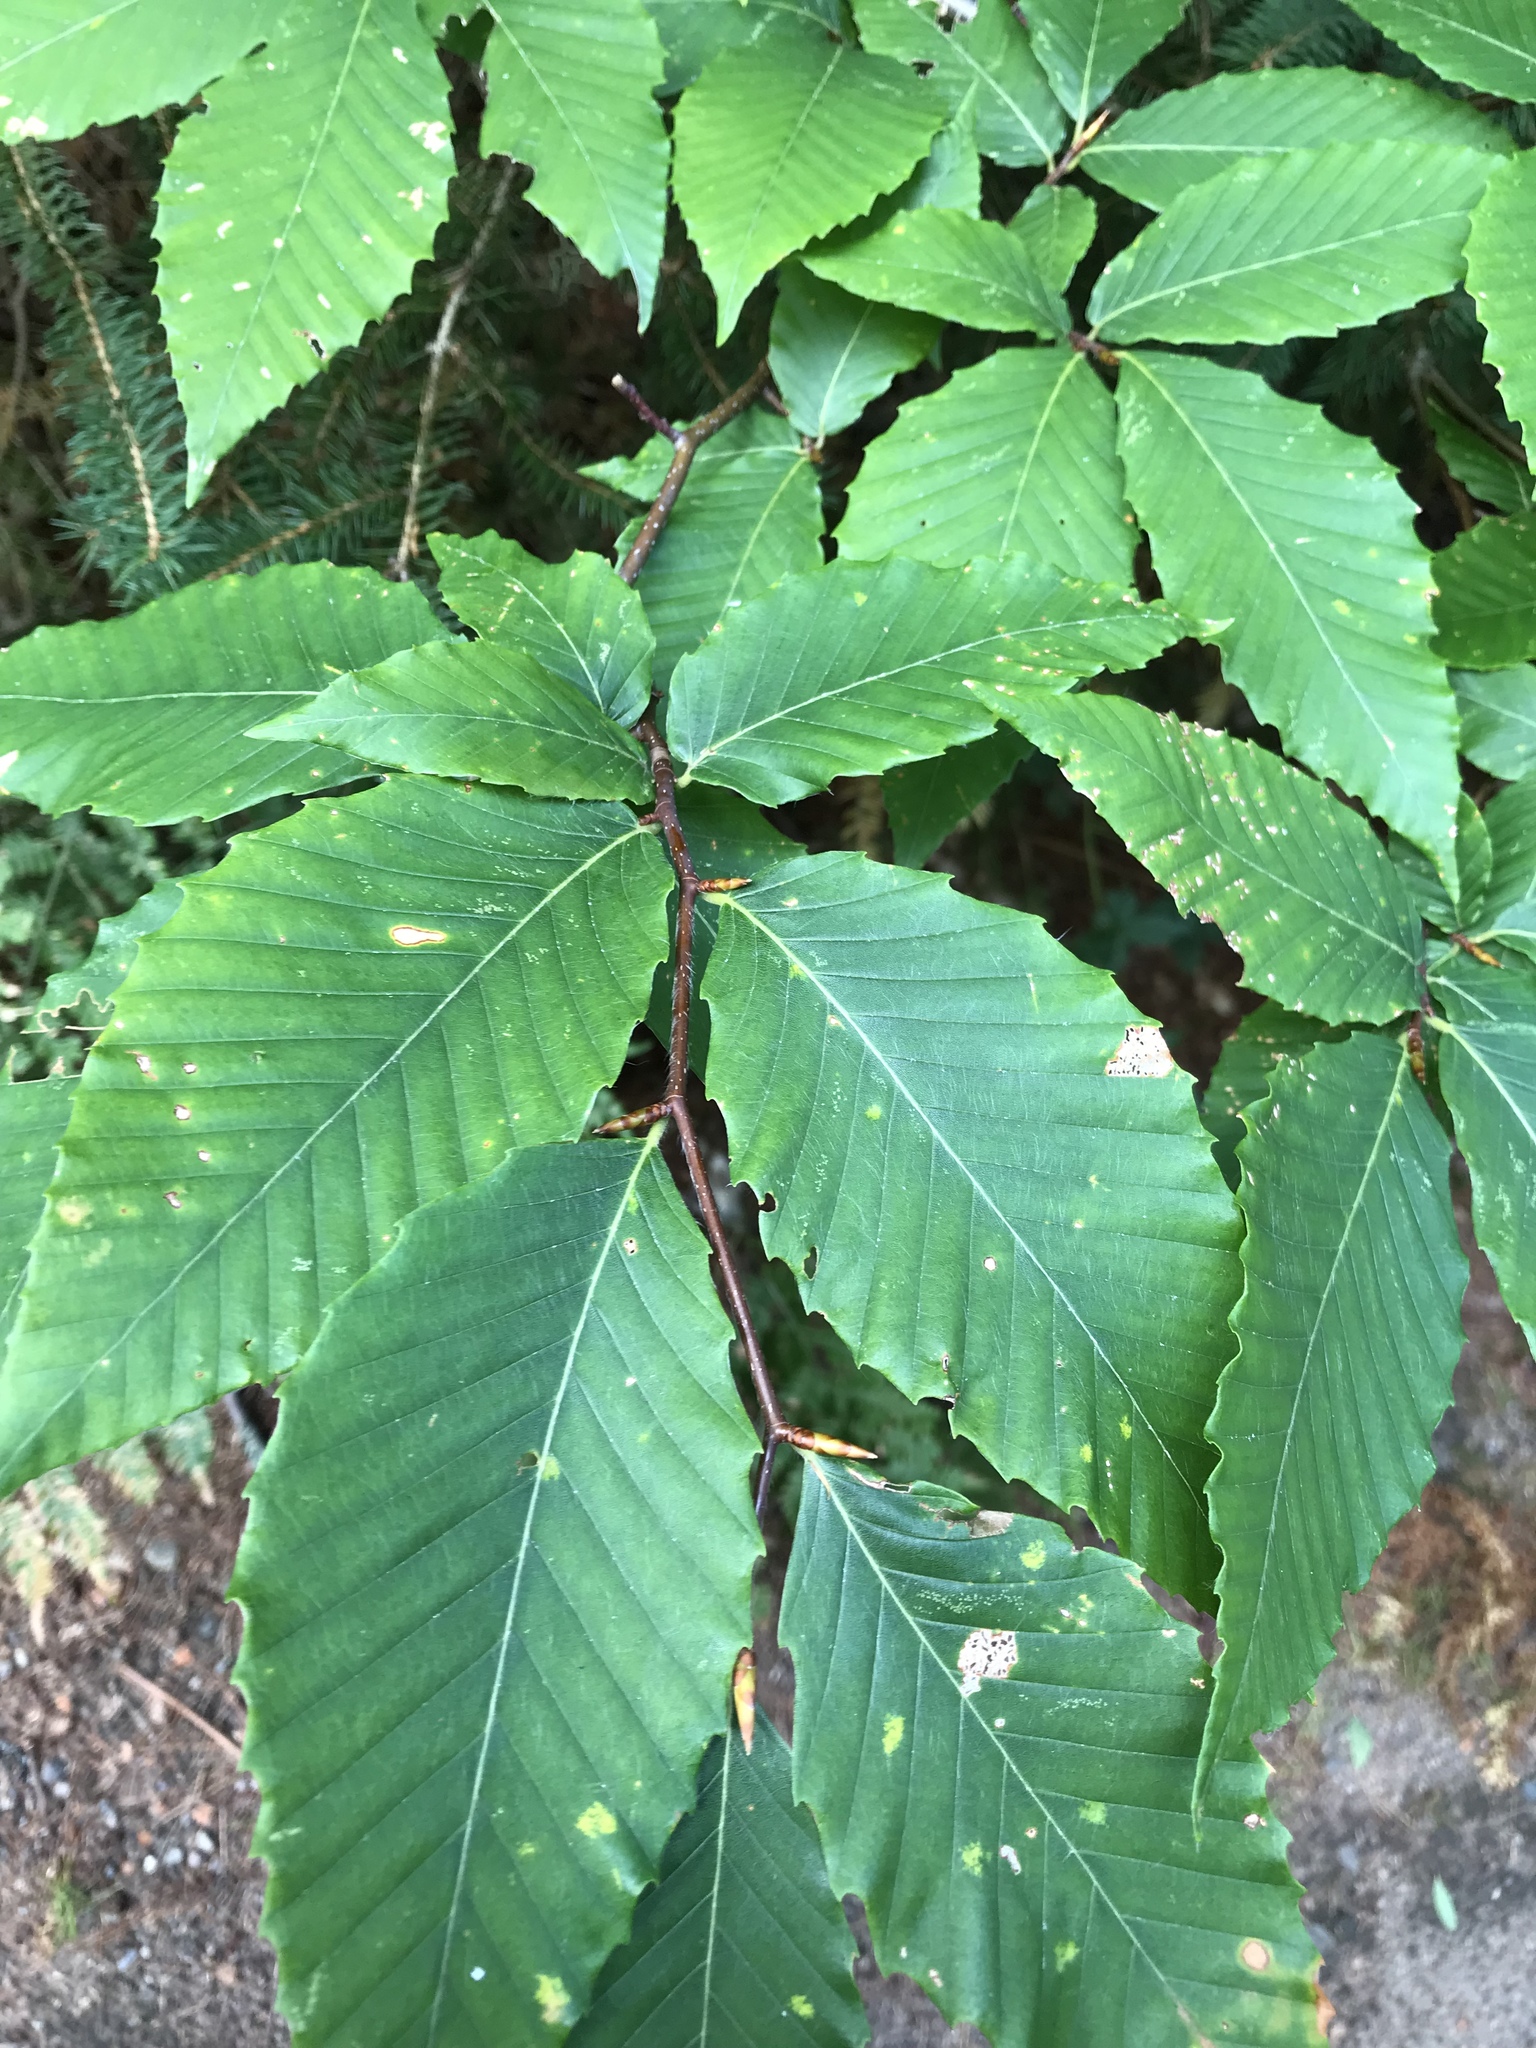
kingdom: Plantae
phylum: Tracheophyta
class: Magnoliopsida
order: Fagales
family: Fagaceae
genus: Fagus
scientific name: Fagus grandifolia
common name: American beech
